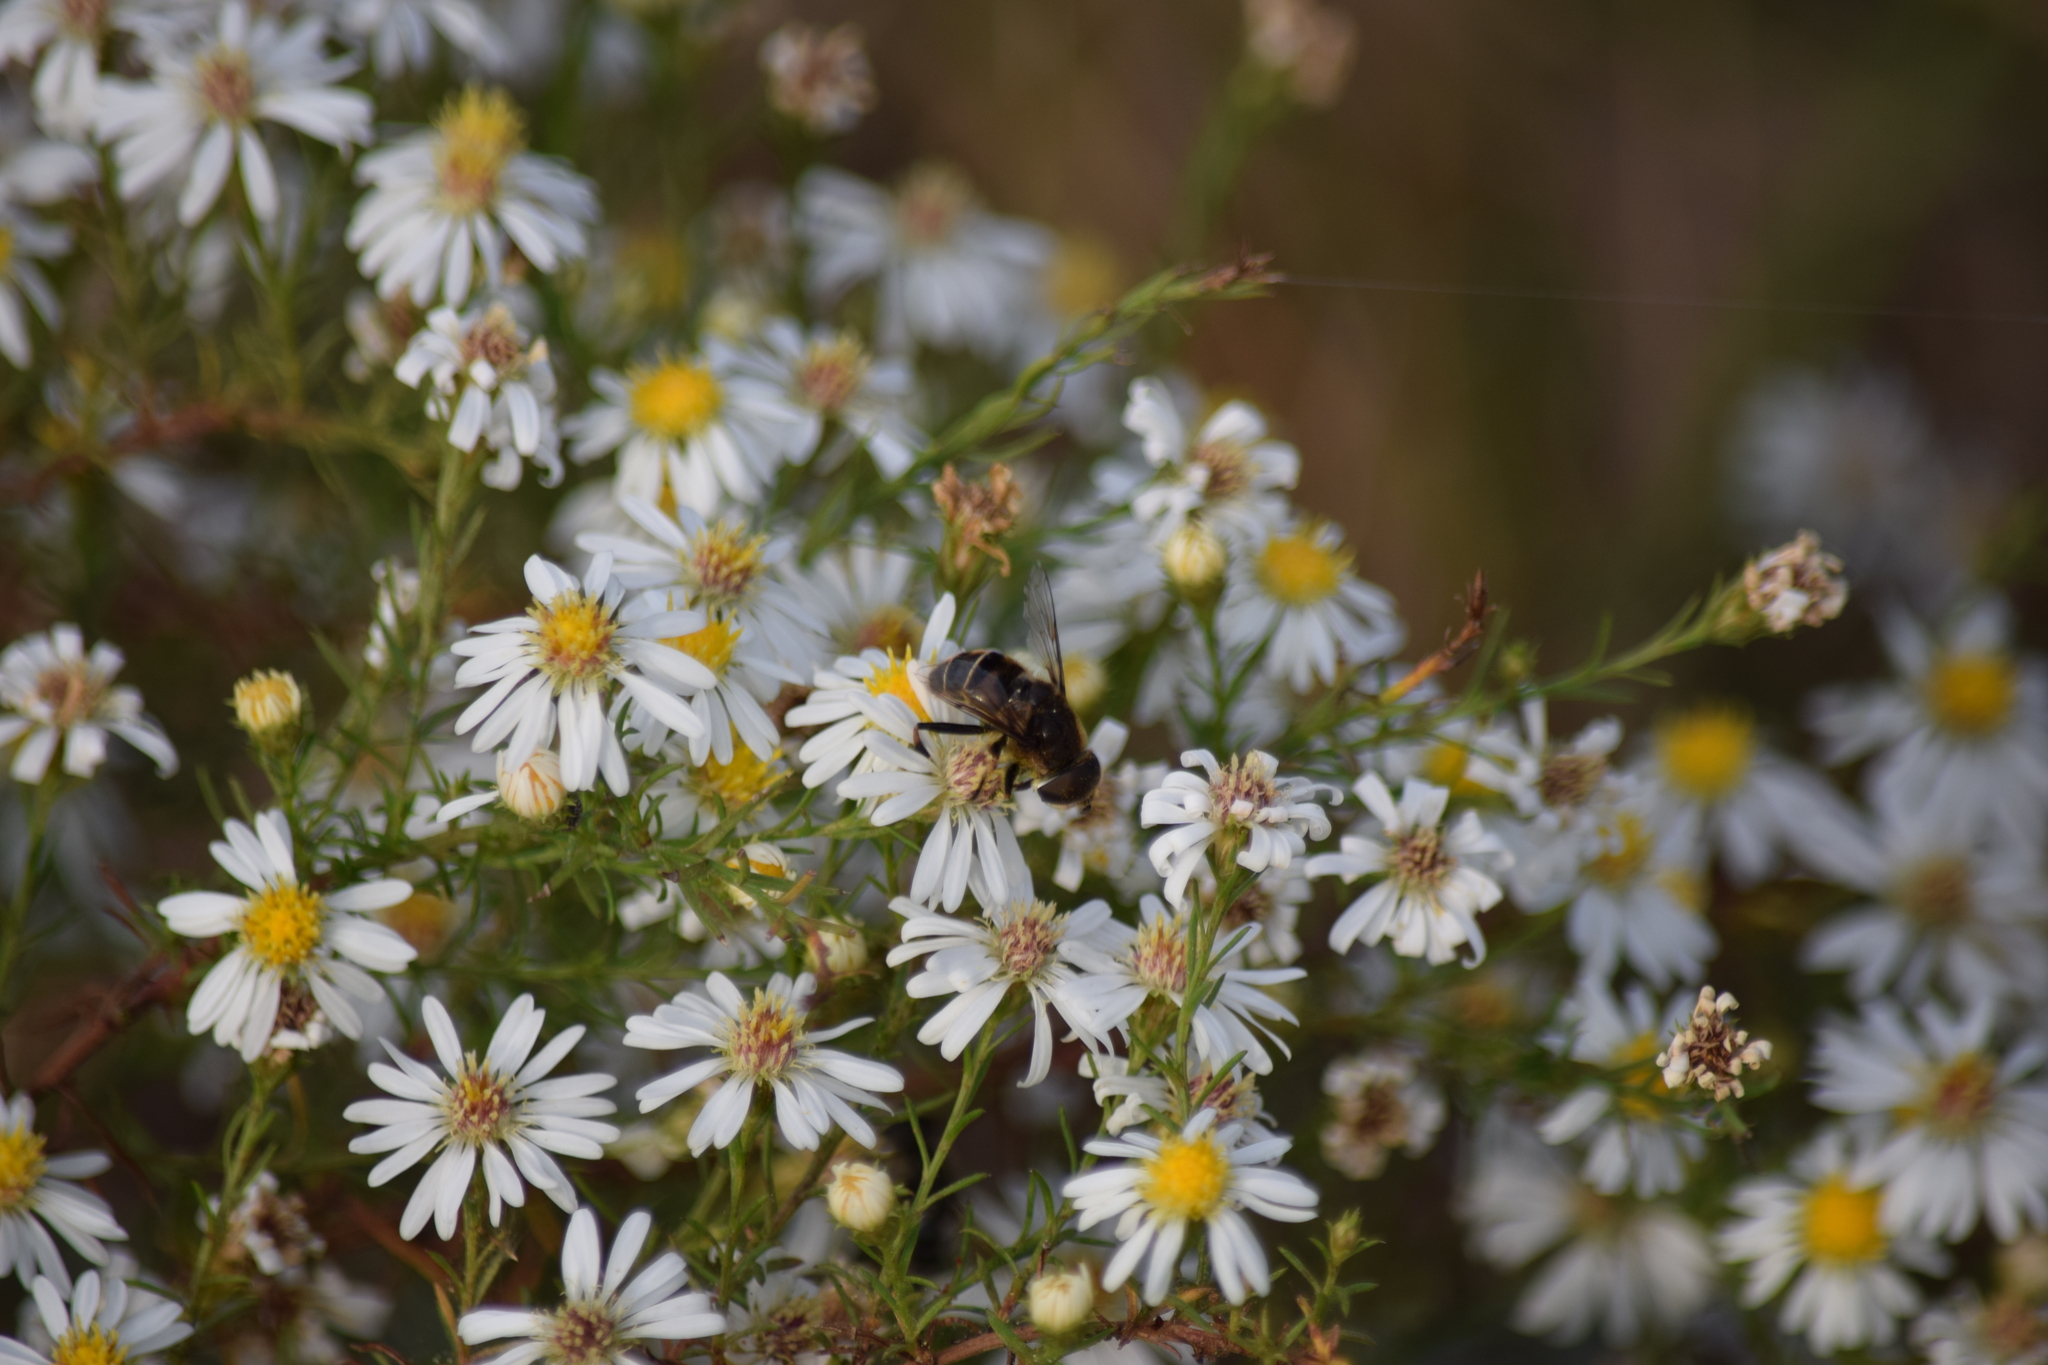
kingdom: Animalia
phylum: Arthropoda
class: Insecta
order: Diptera
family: Syrphidae
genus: Eristalis
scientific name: Eristalis dimidiata
